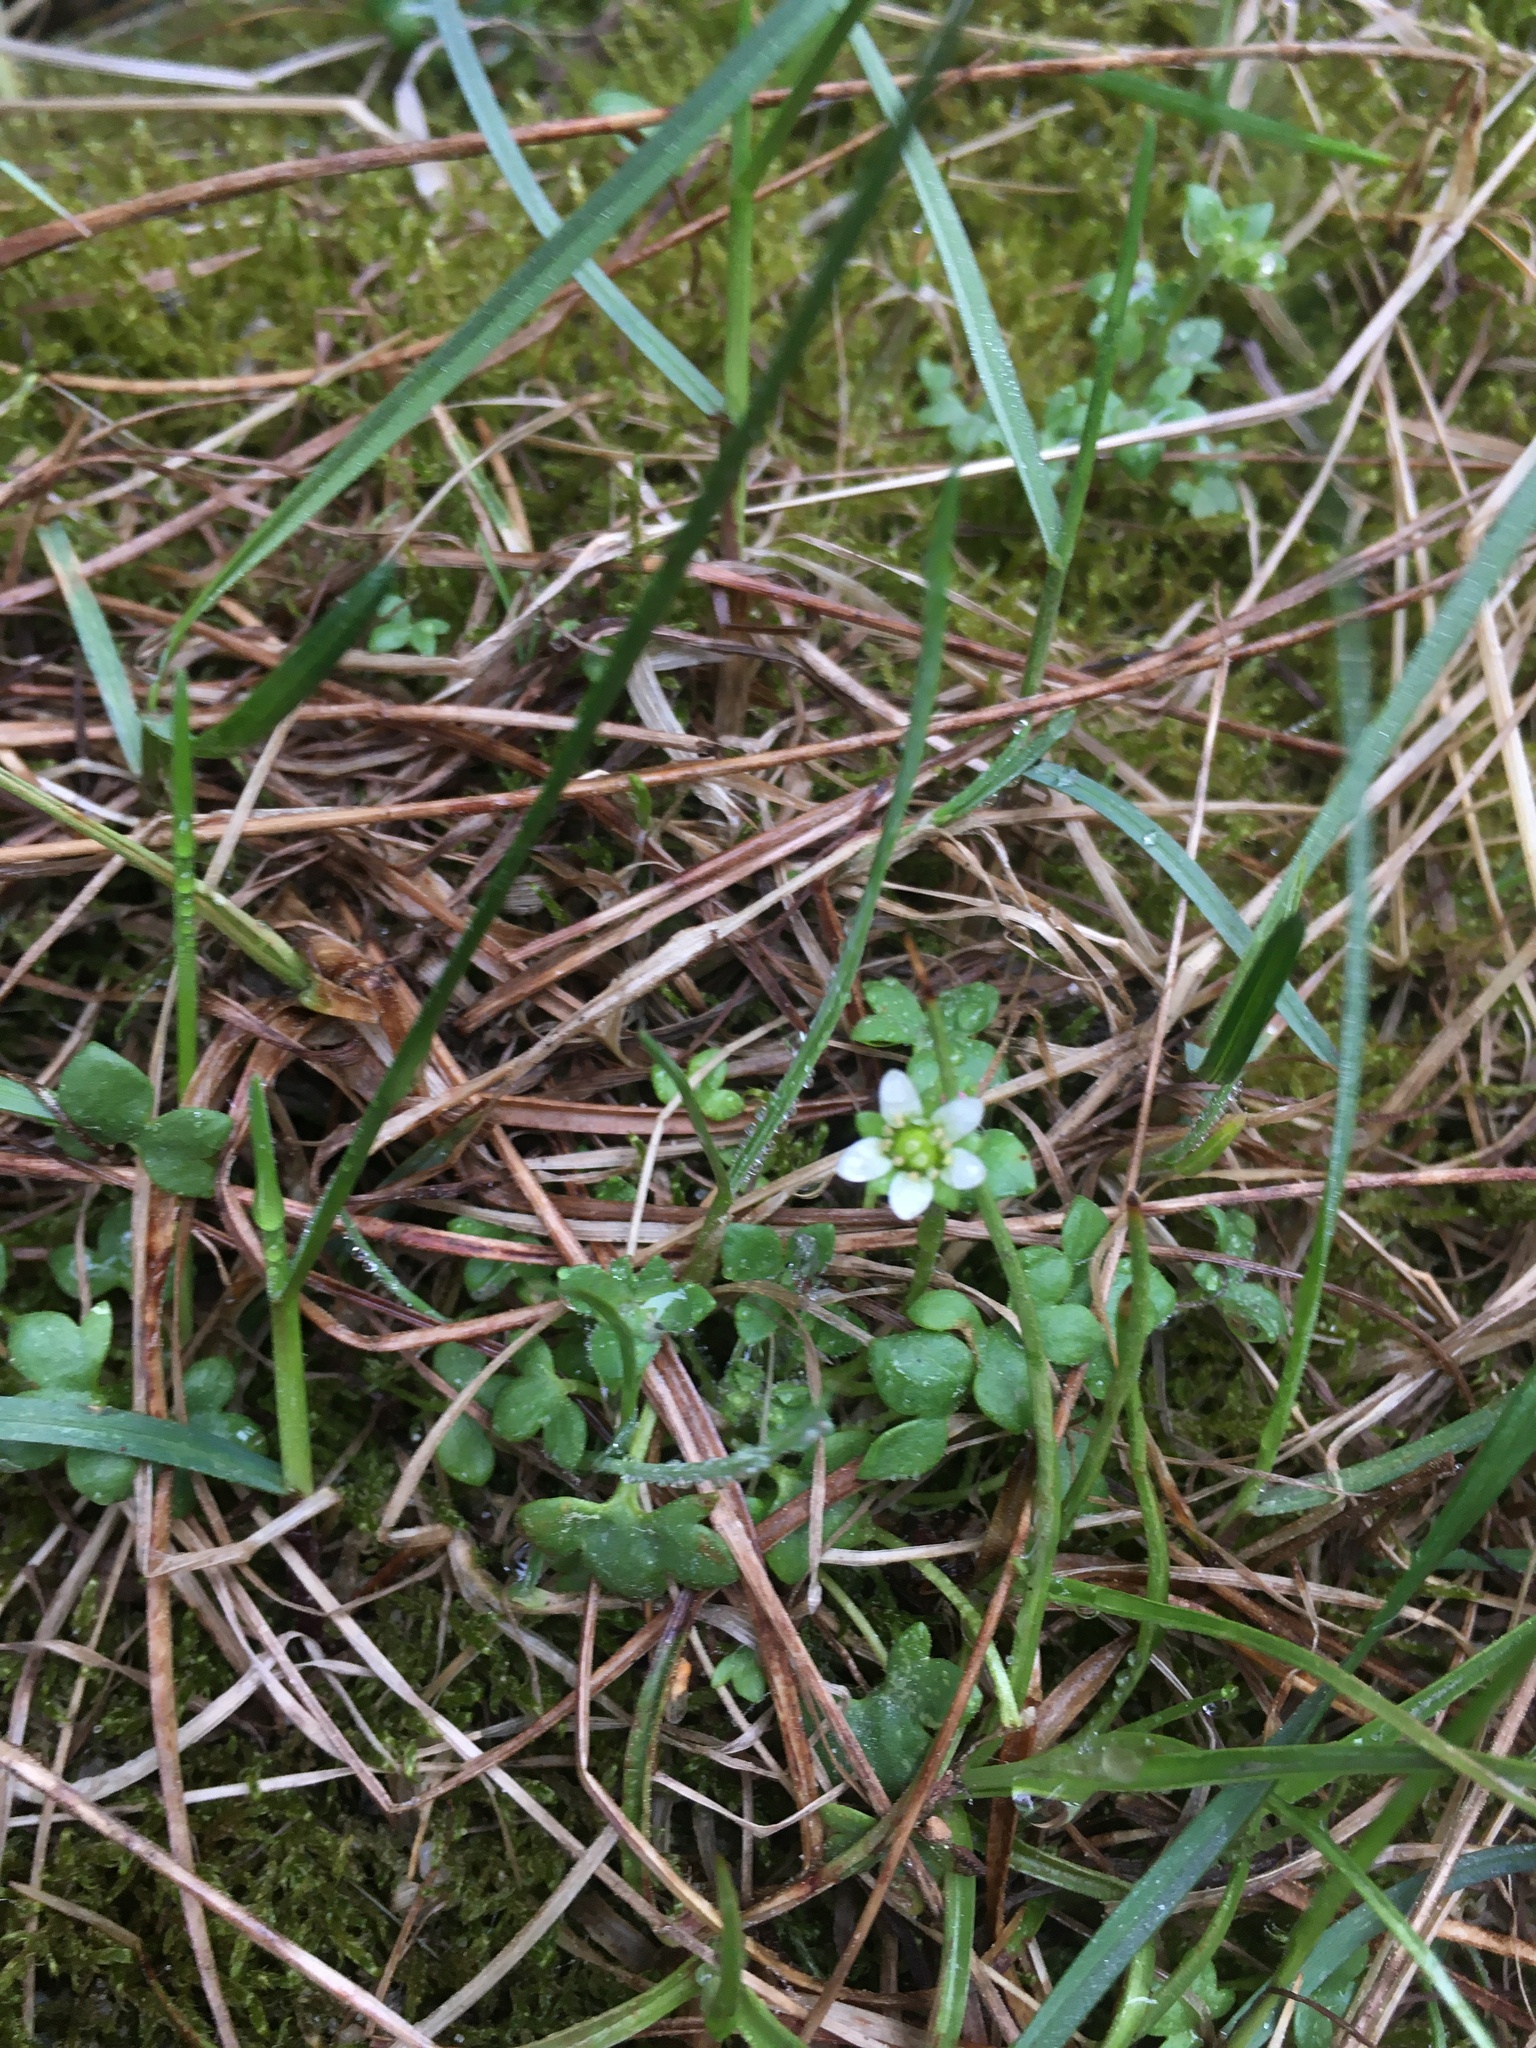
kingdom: Plantae
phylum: Tracheophyta
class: Magnoliopsida
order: Saxifragales
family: Saxifragaceae
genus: Saxifraga
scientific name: Saxifraga rivularis
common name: Highland saxifrage
